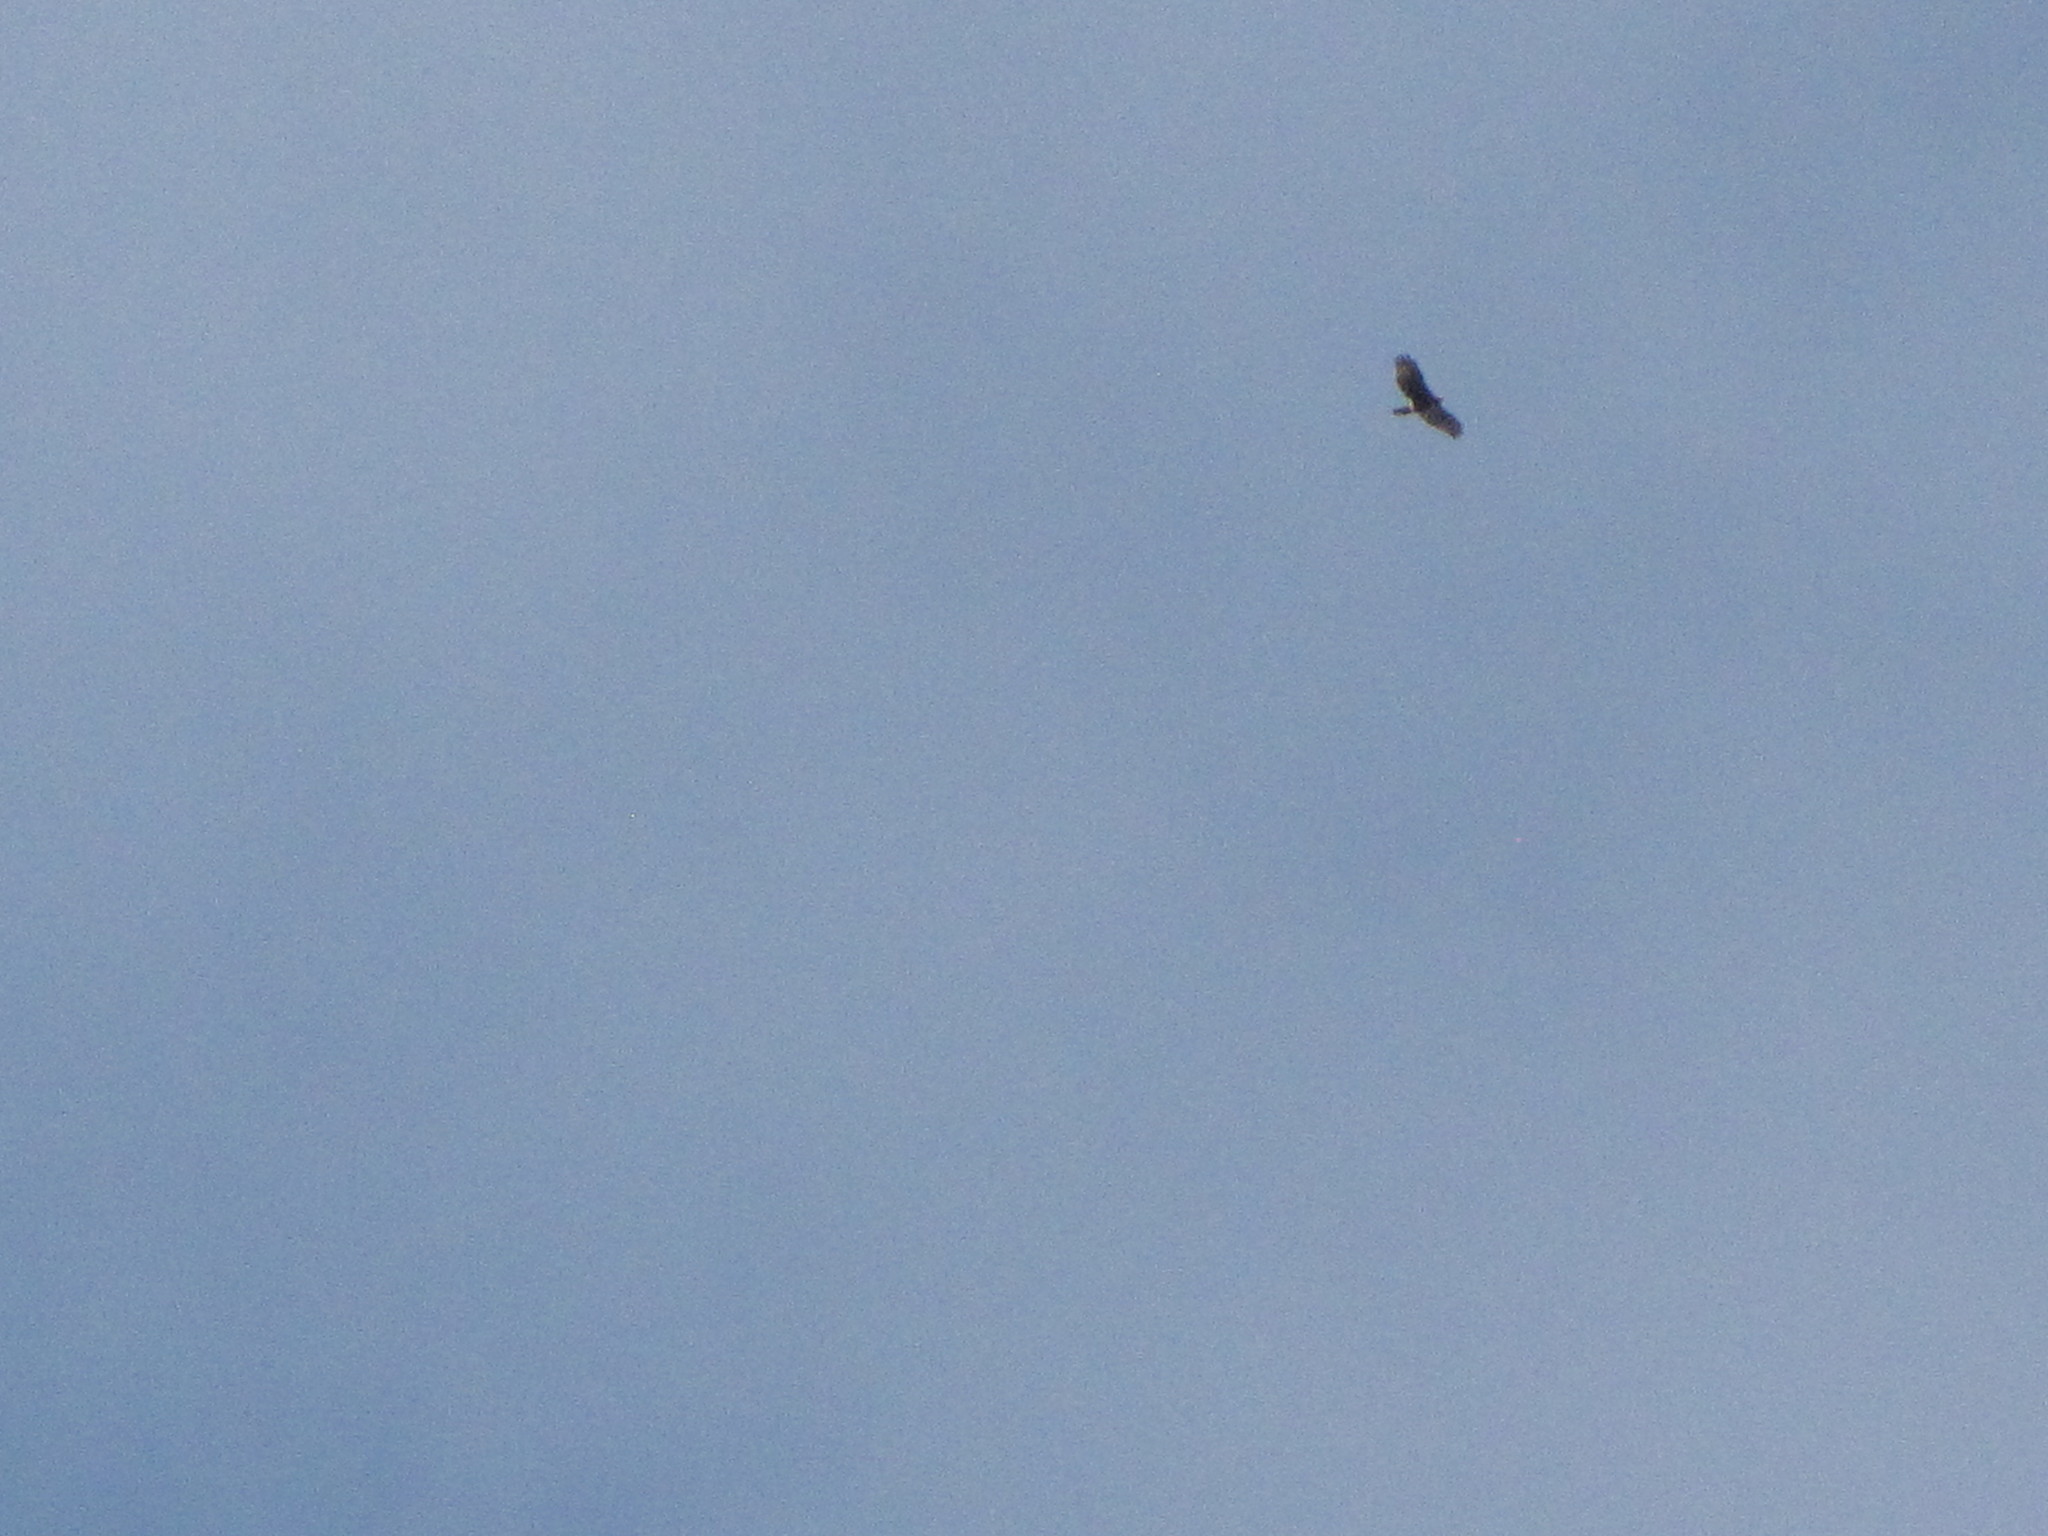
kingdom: Animalia
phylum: Chordata
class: Aves
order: Accipitriformes
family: Accipitridae
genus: Buteo
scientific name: Buteo jamaicensis
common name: Red-tailed hawk
